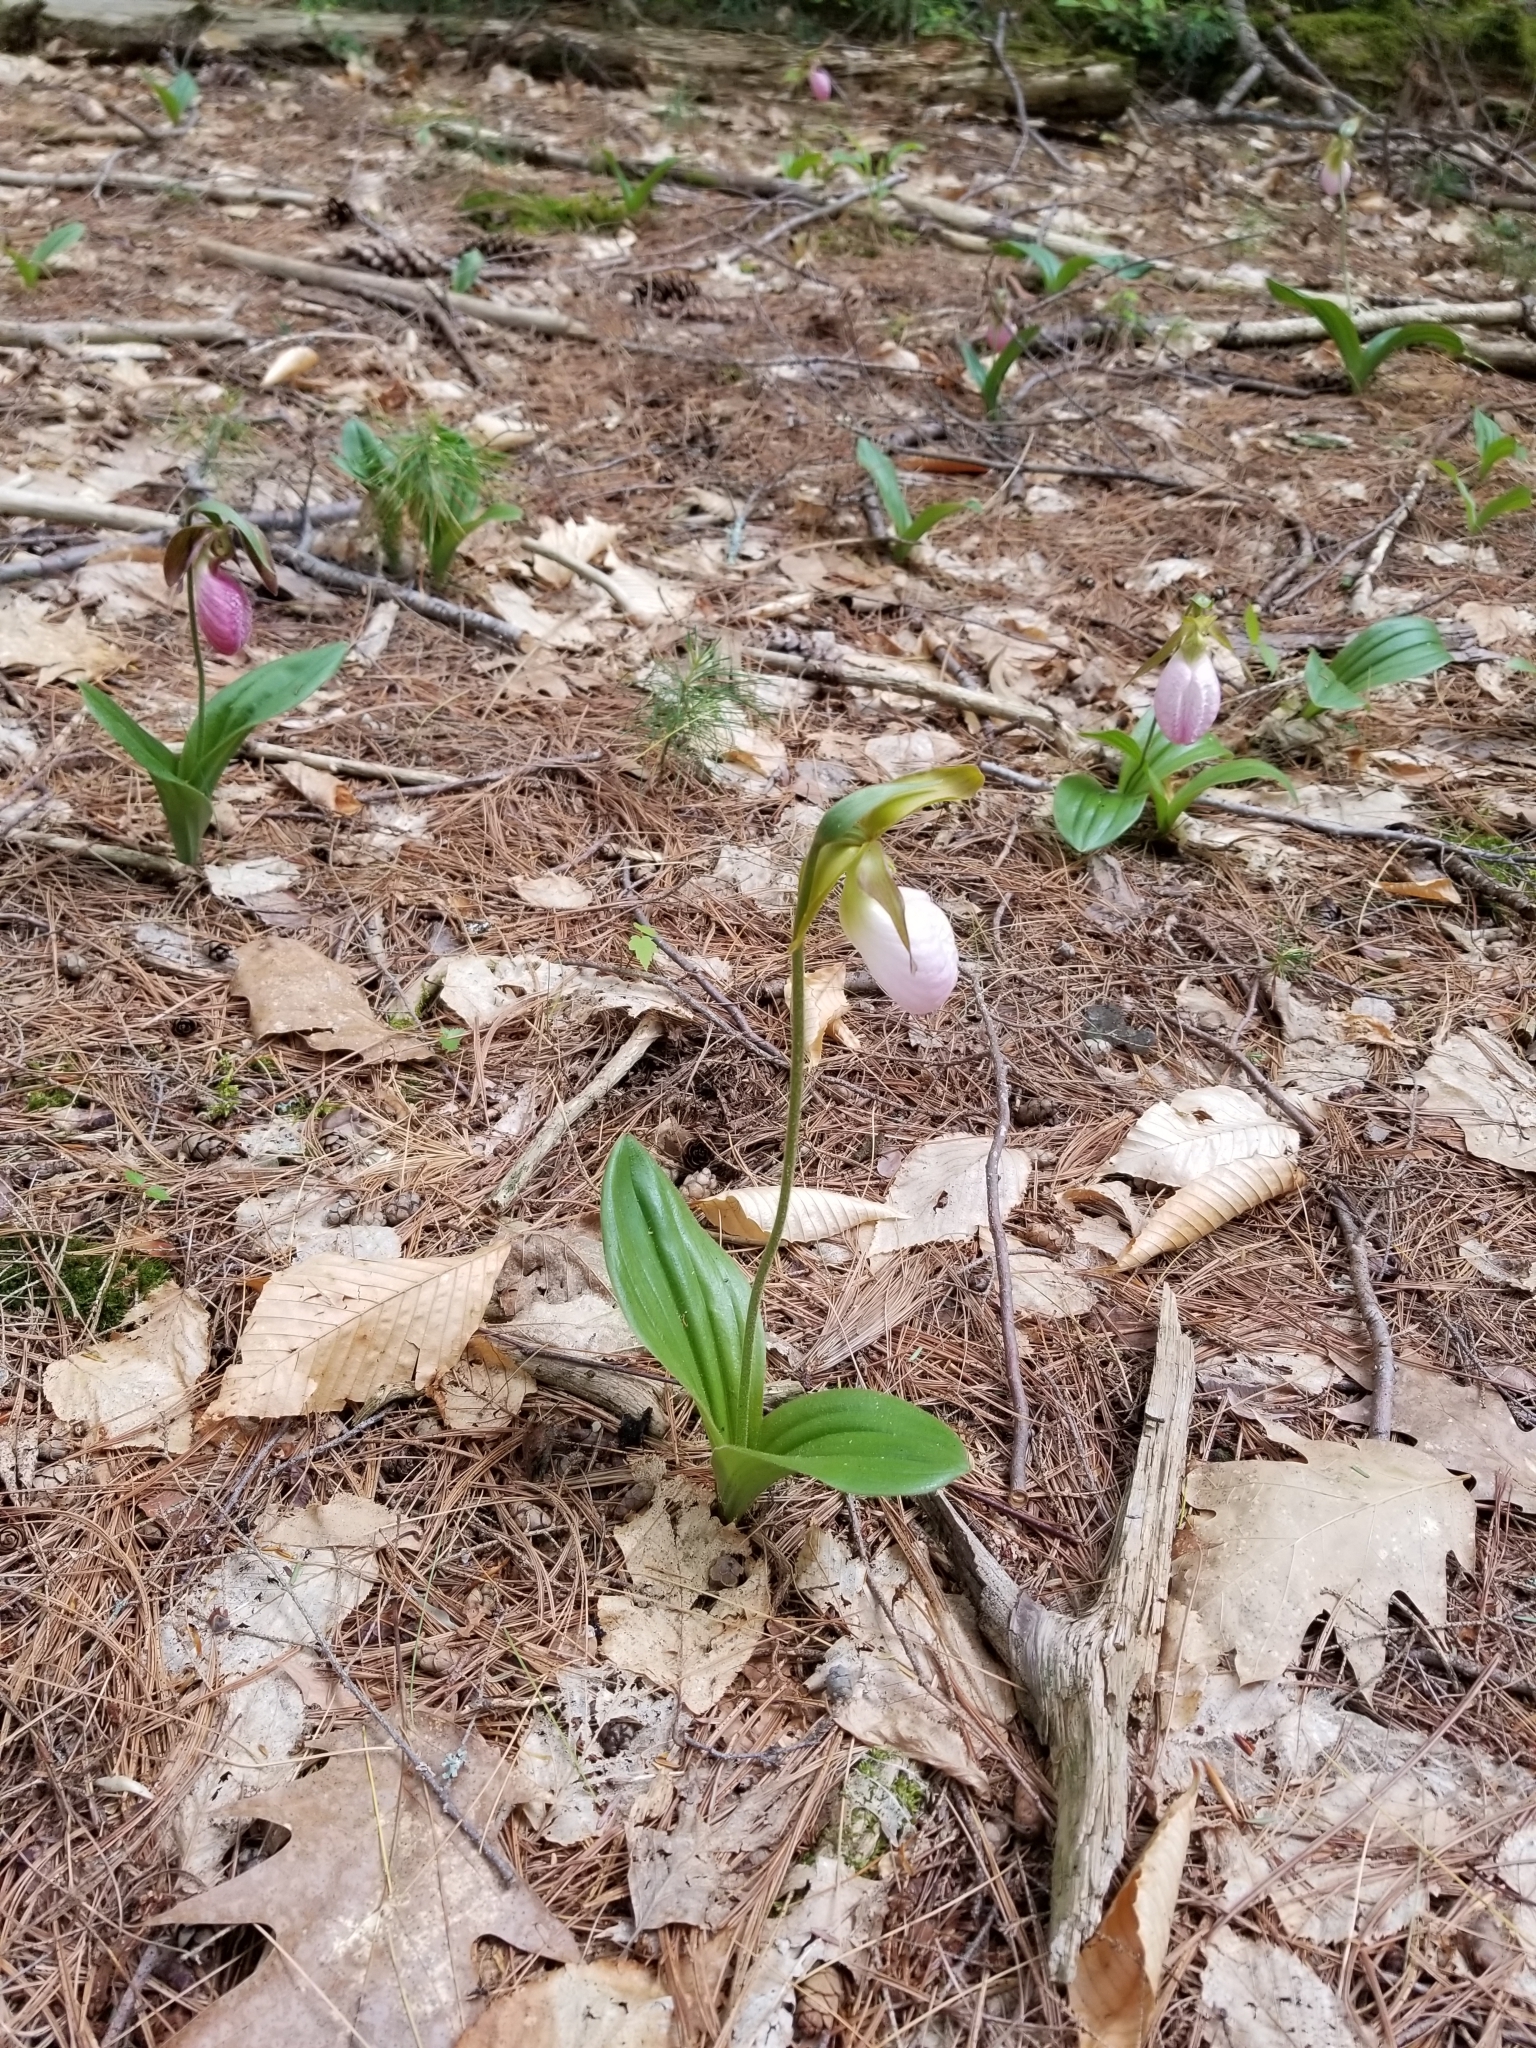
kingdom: Plantae
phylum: Tracheophyta
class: Liliopsida
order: Asparagales
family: Orchidaceae
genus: Cypripedium
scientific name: Cypripedium acaule
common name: Pink lady's-slipper
